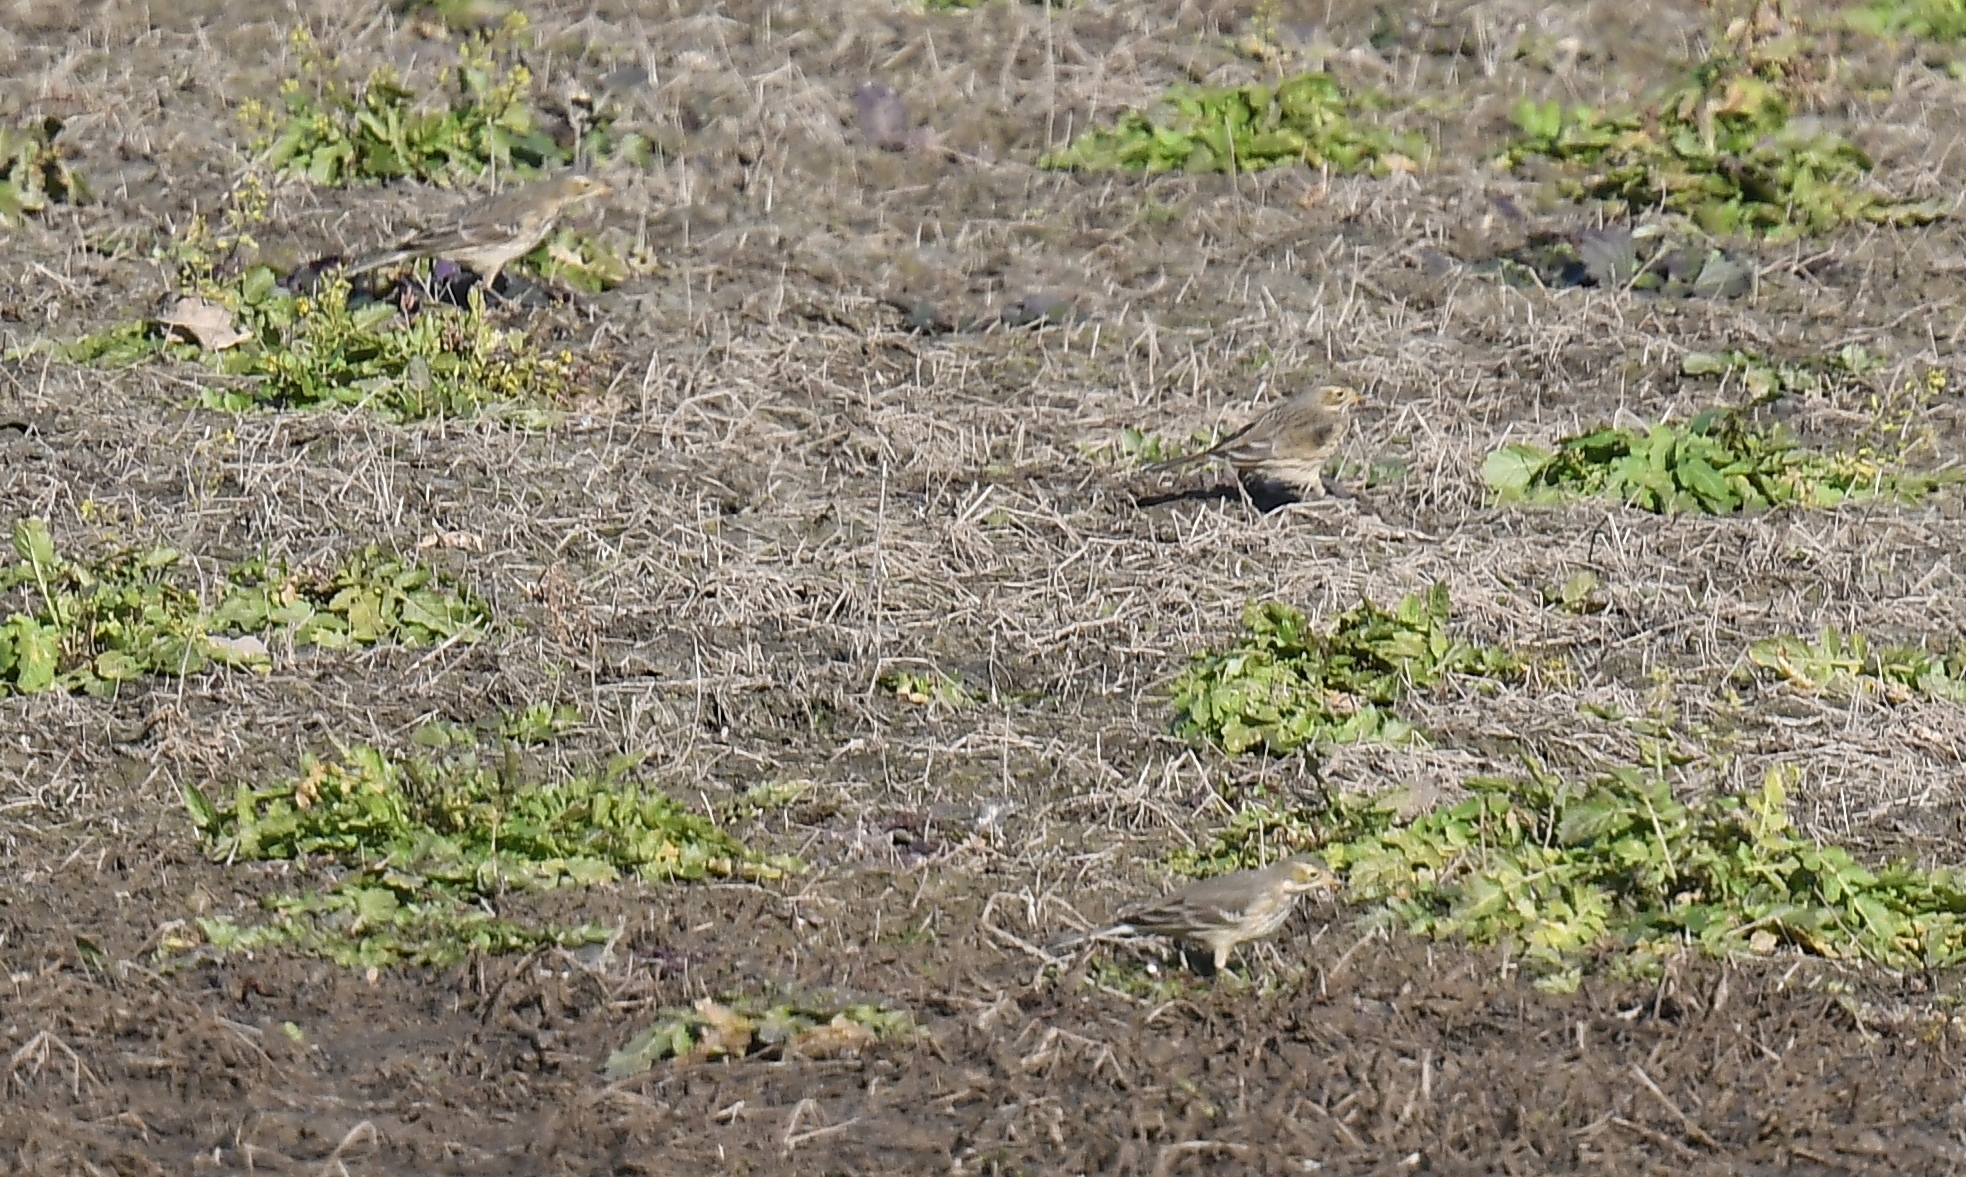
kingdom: Animalia
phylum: Chordata
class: Aves
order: Passeriformes
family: Motacillidae
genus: Anthus
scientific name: Anthus rubescens
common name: Buff-bellied pipit
